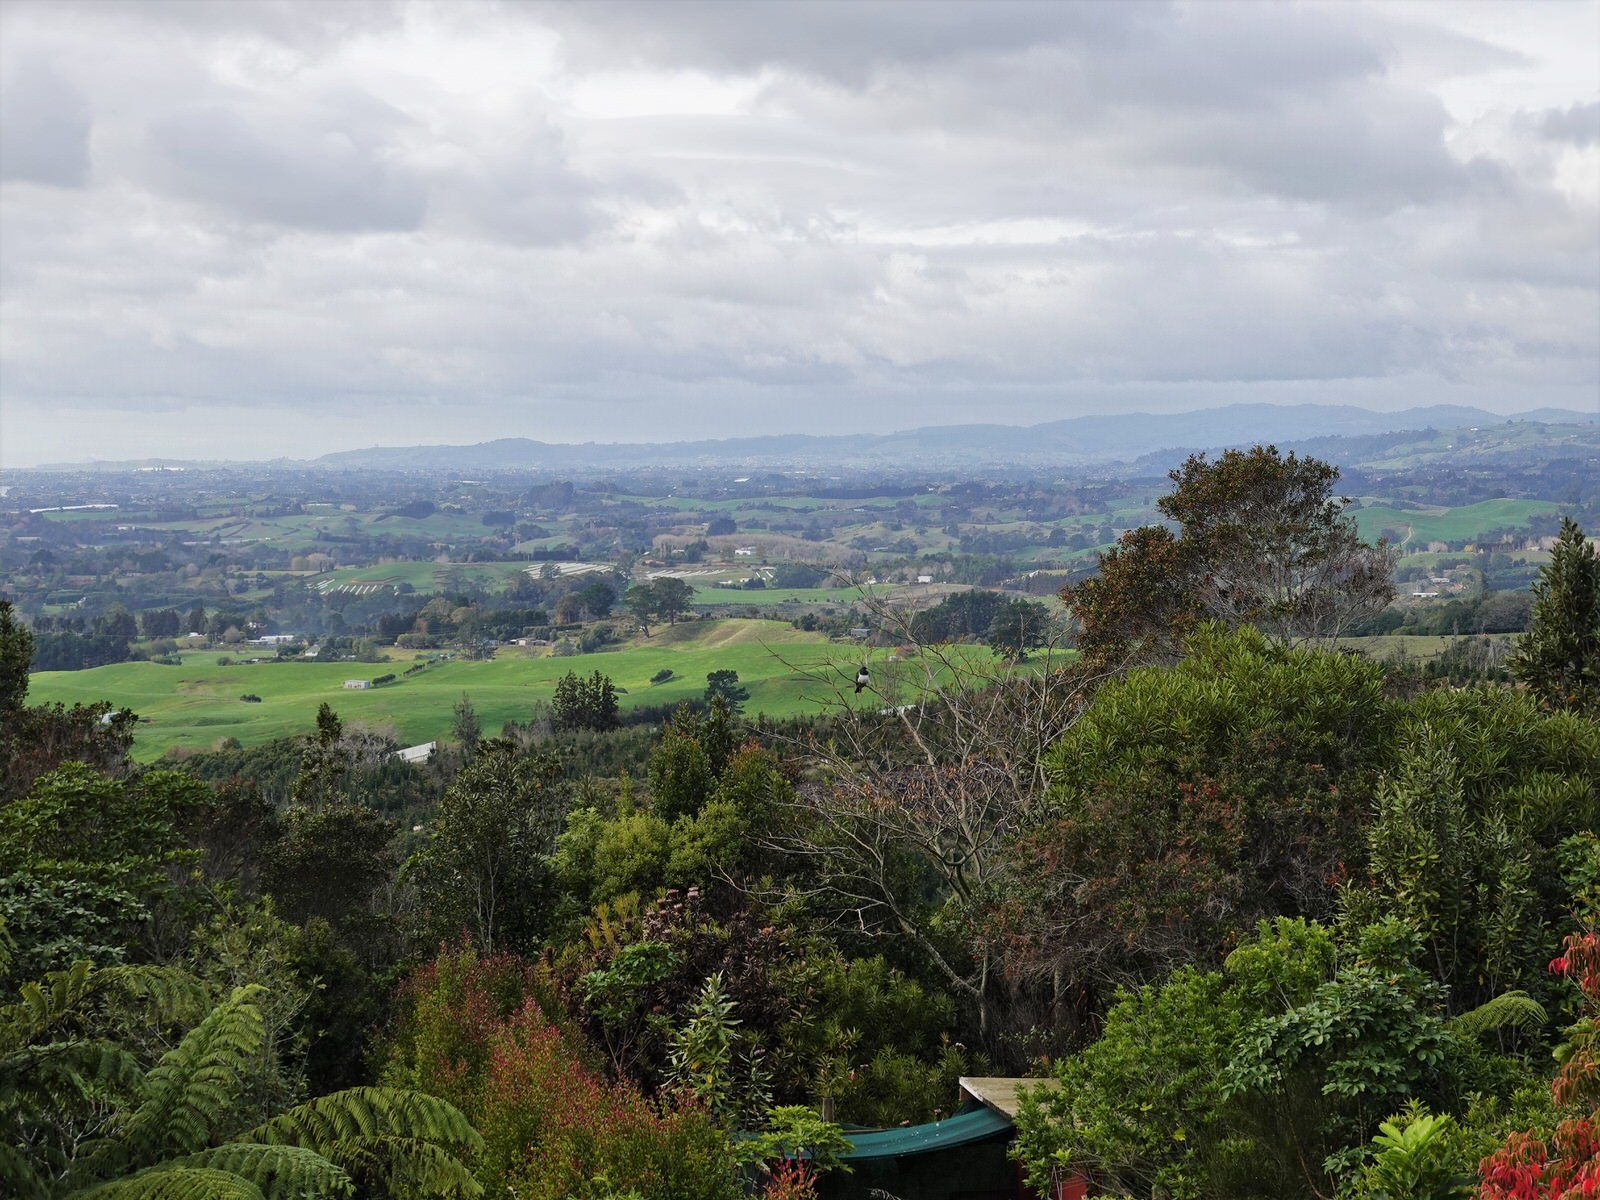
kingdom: Animalia
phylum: Chordata
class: Aves
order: Columbiformes
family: Columbidae
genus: Hemiphaga
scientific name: Hemiphaga novaeseelandiae
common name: New zealand pigeon
